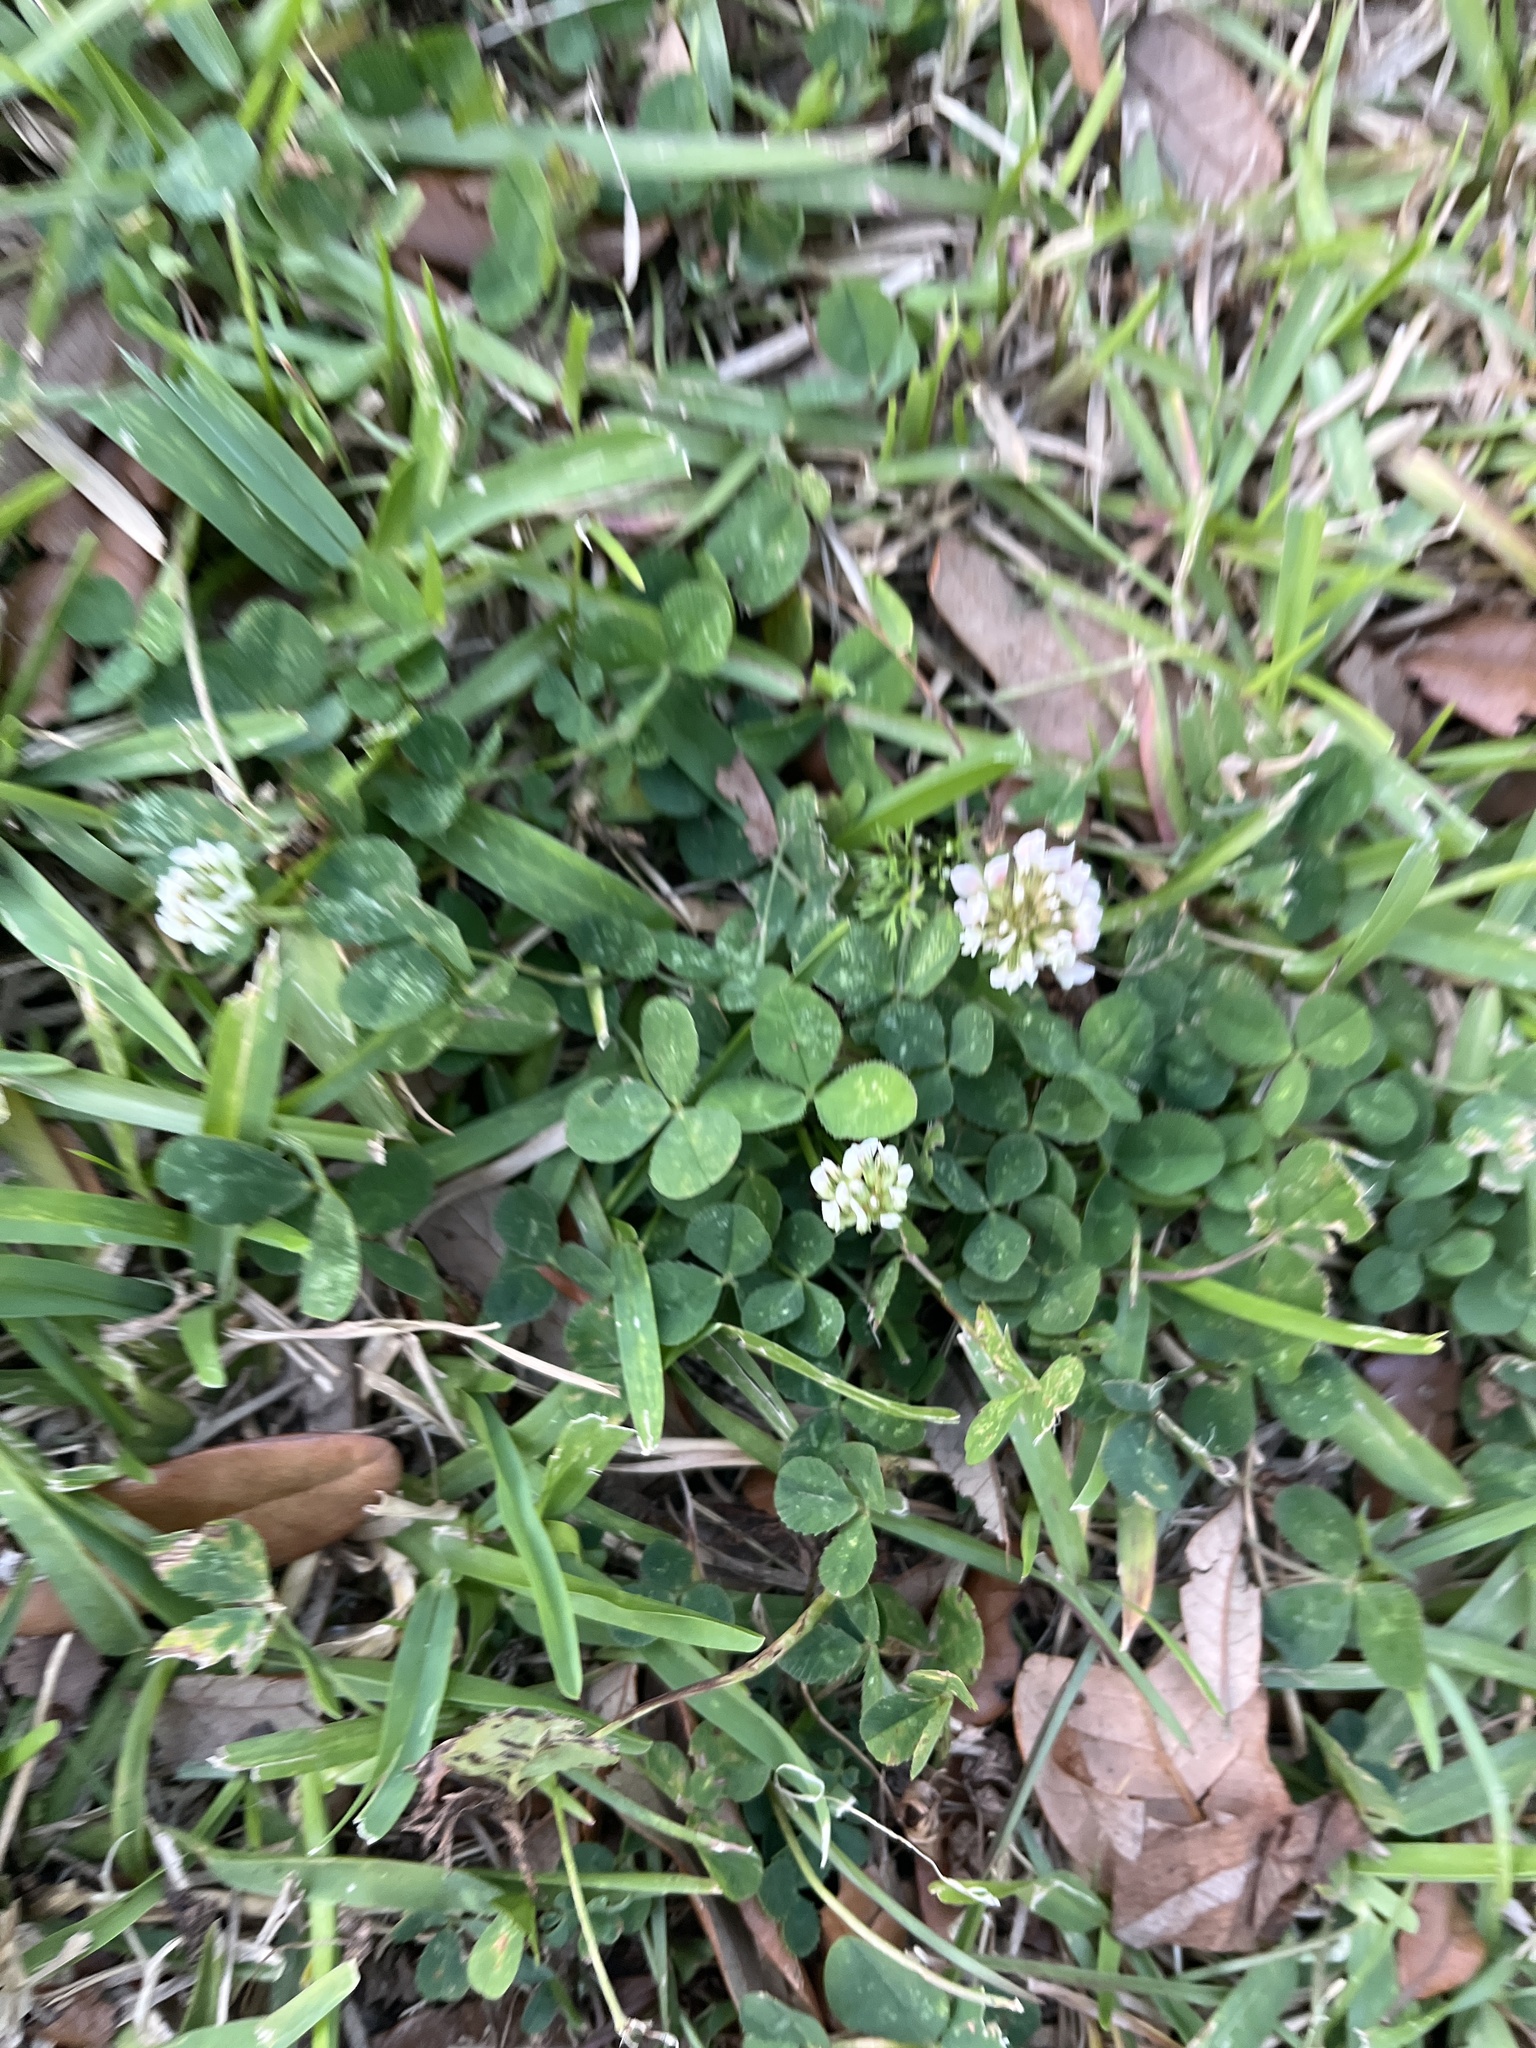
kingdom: Plantae
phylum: Tracheophyta
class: Magnoliopsida
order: Fabales
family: Fabaceae
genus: Trifolium
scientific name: Trifolium repens
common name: White clover
